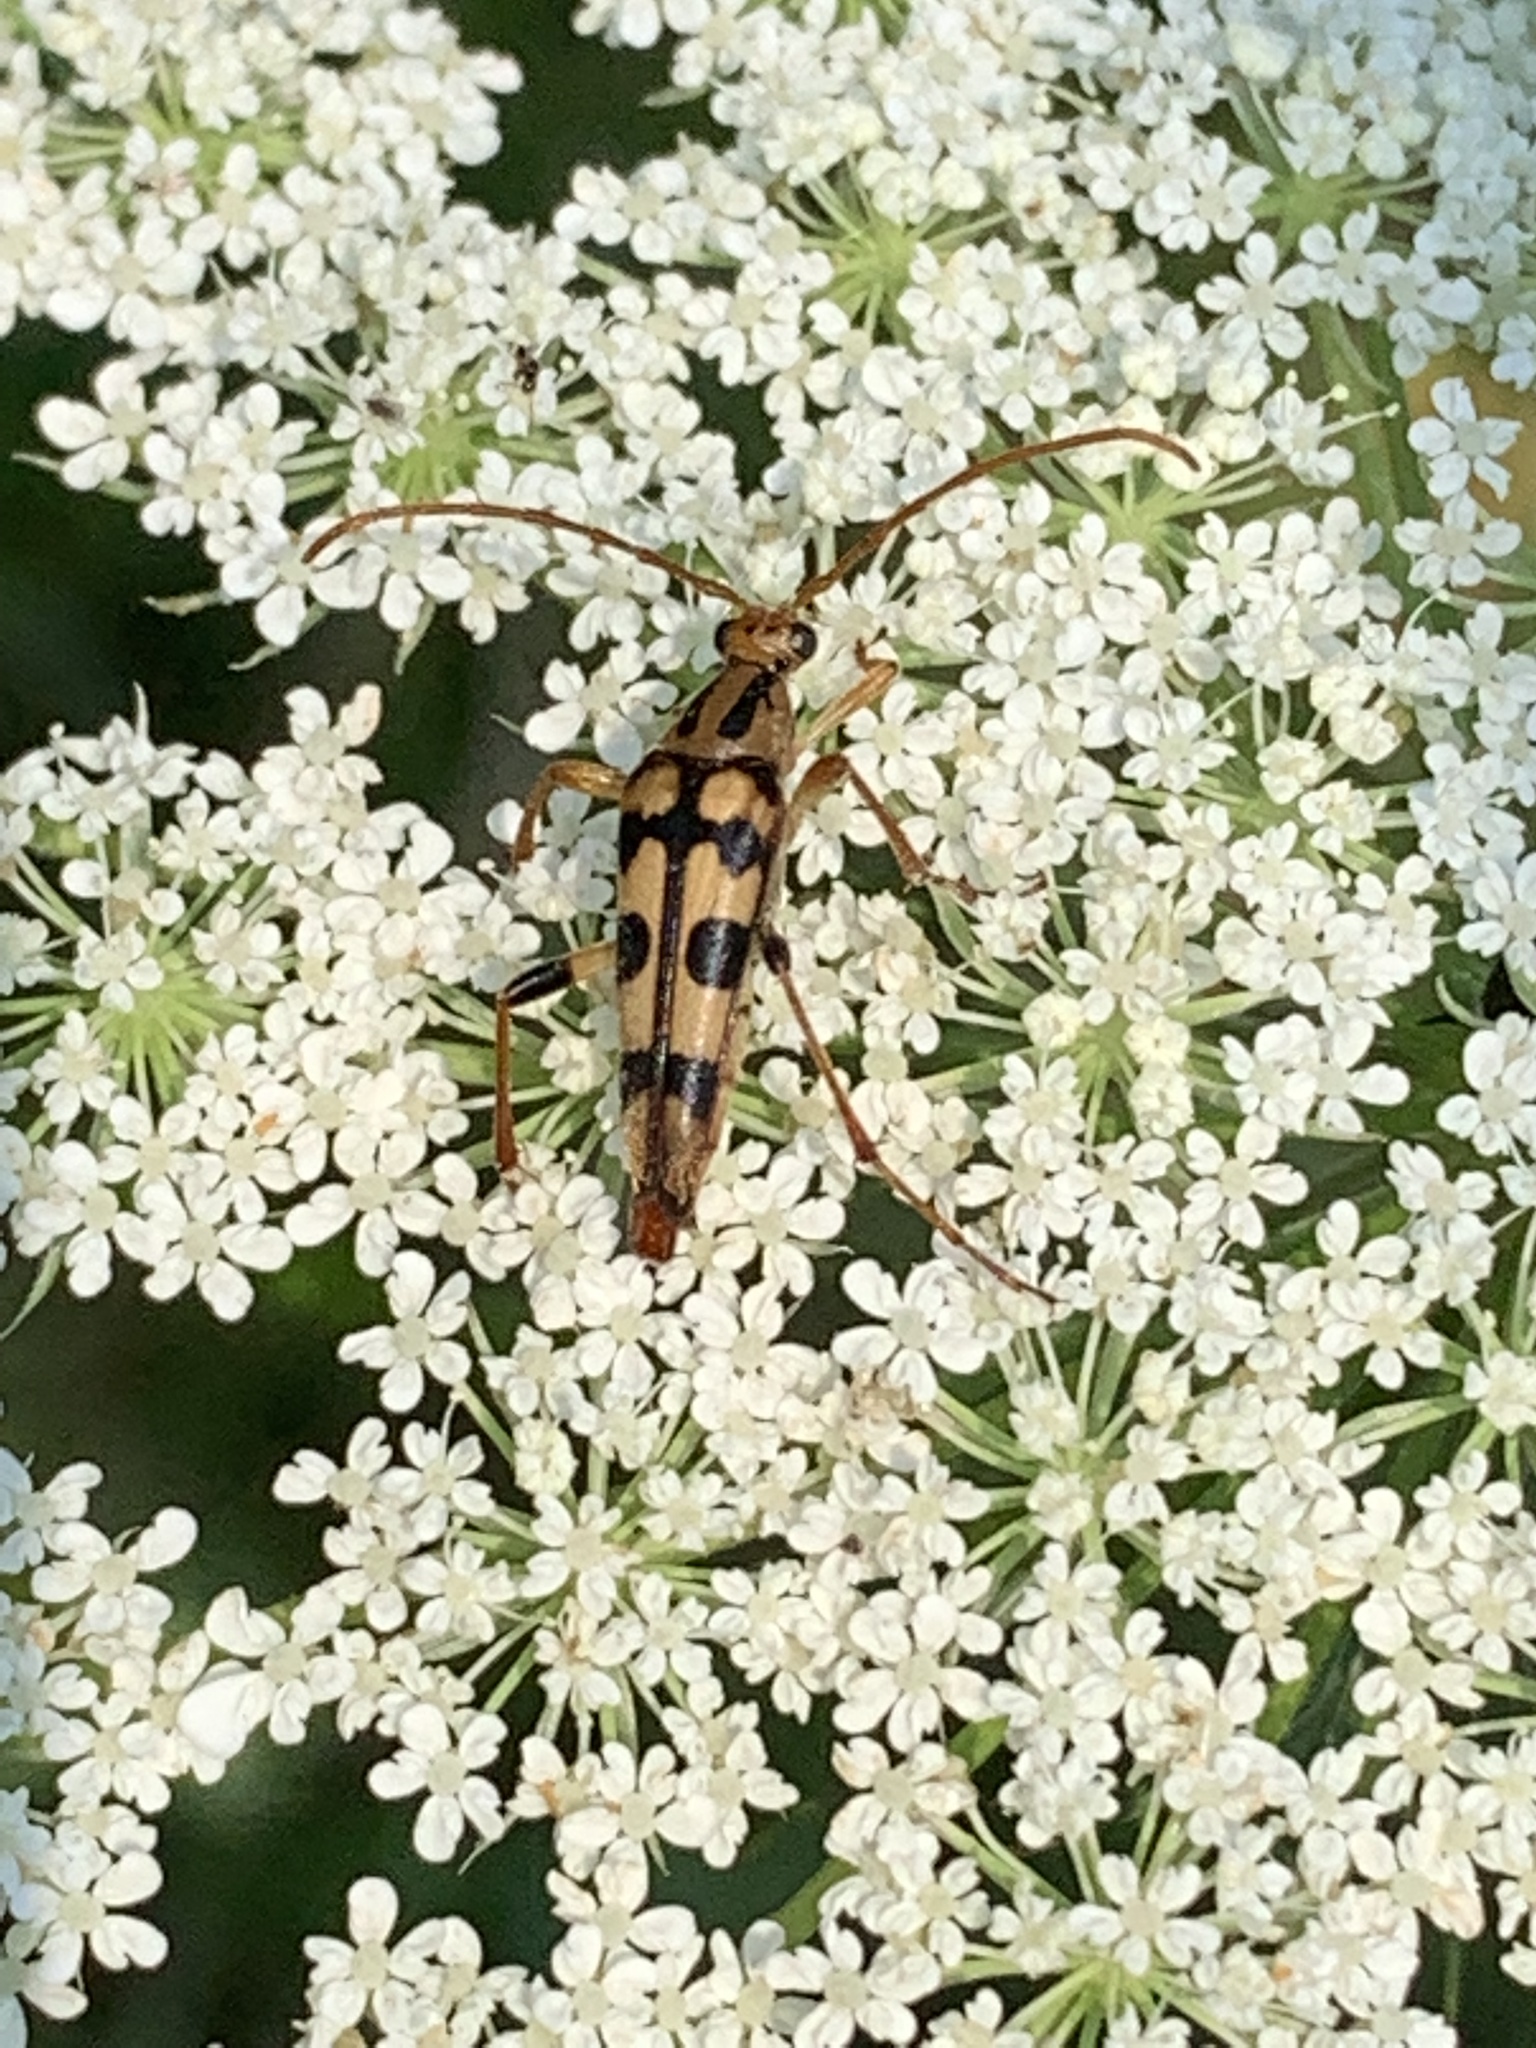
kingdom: Animalia
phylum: Arthropoda
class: Insecta
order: Coleoptera
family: Cerambycidae
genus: Strangalia
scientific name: Strangalia luteicornis
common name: Yellow-horned flower longhorn beetle
